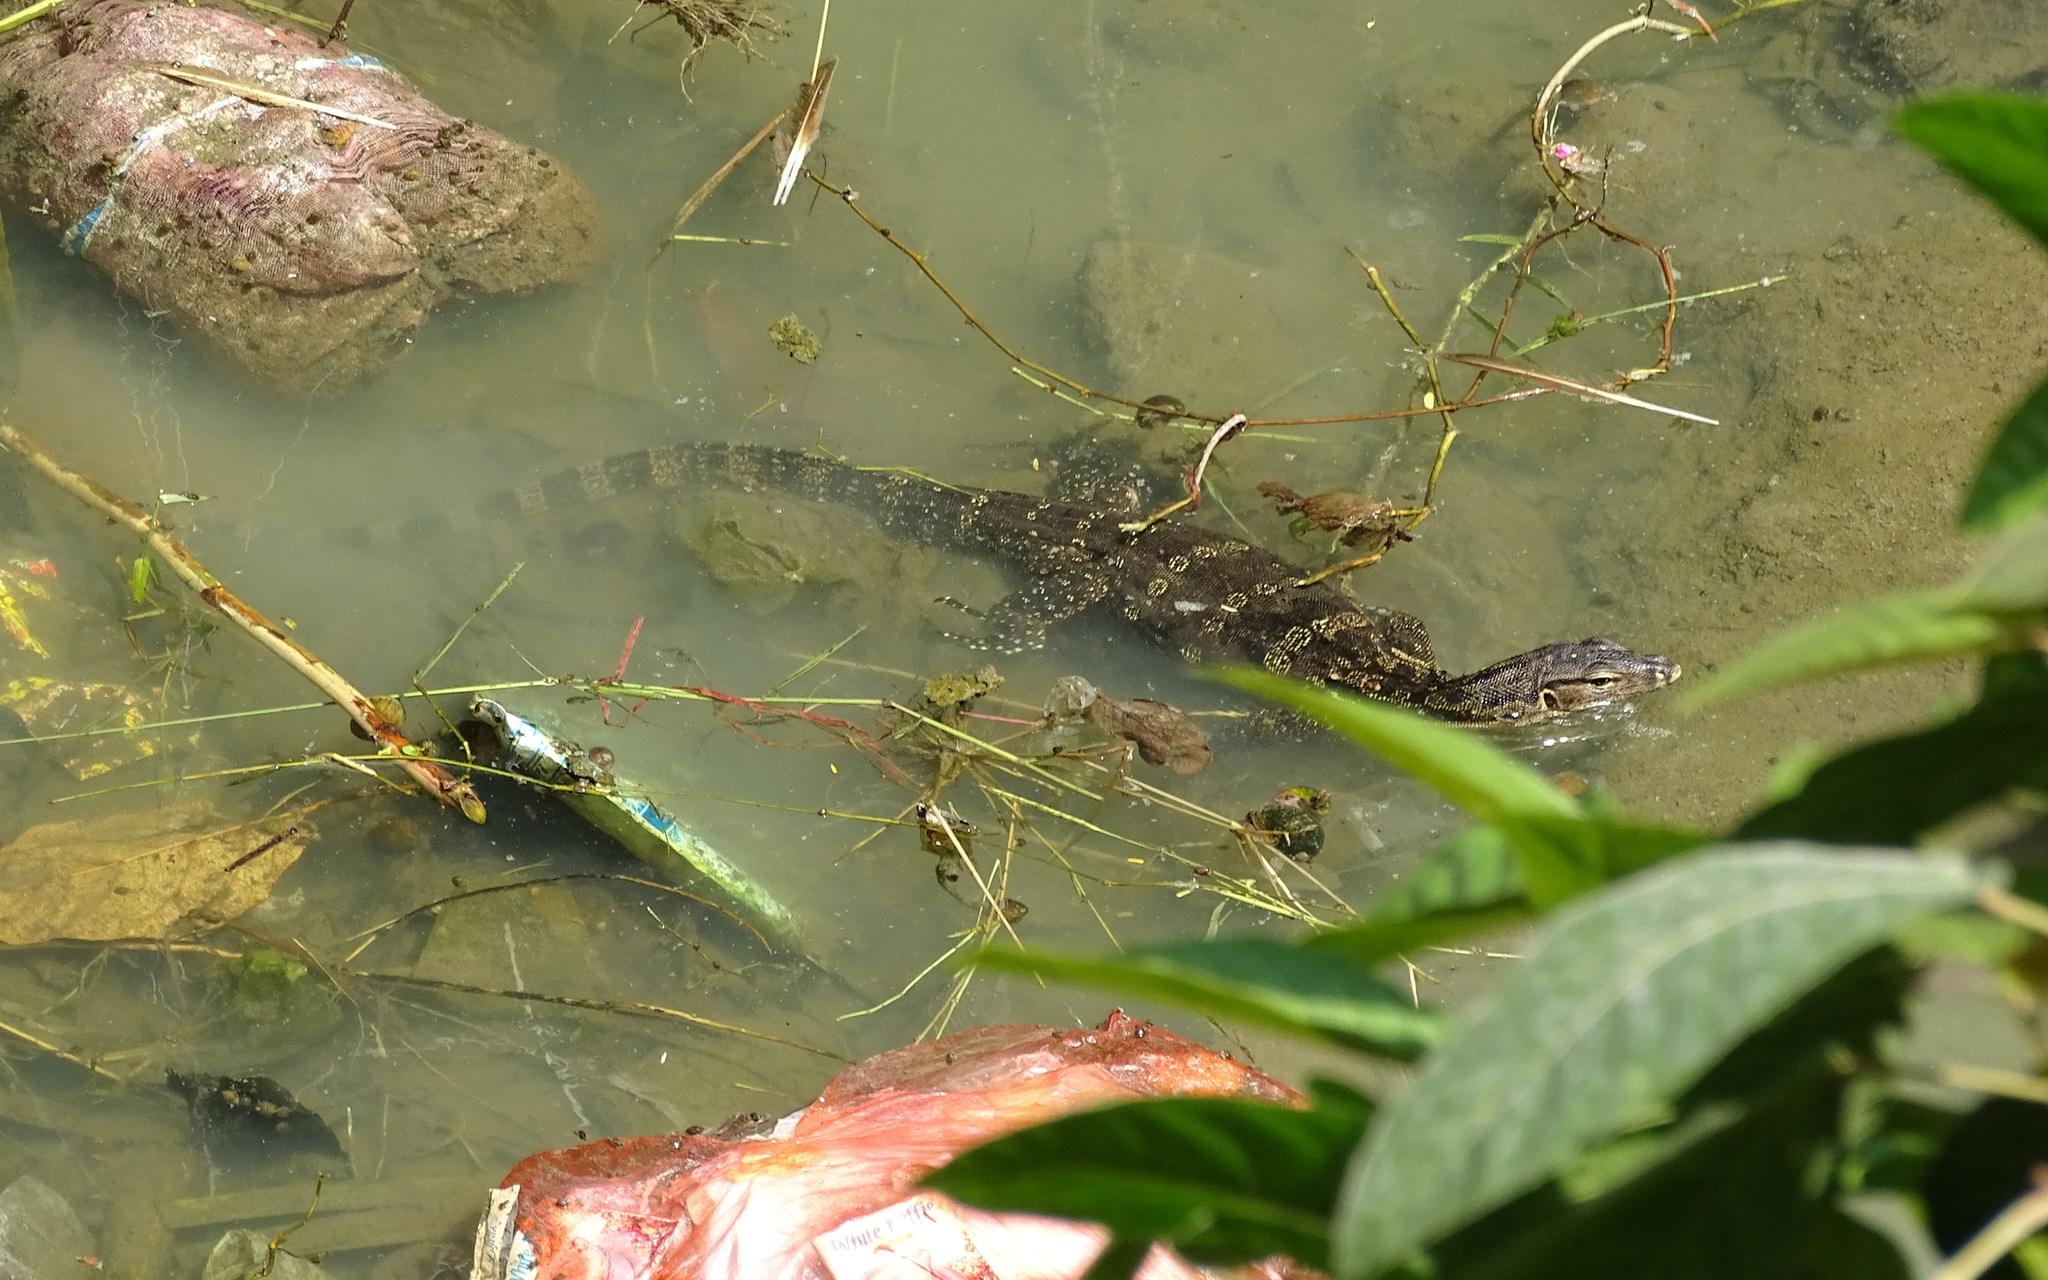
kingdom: Animalia
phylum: Chordata
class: Squamata
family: Varanidae
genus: Varanus
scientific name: Varanus salvator
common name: Common water monitor
